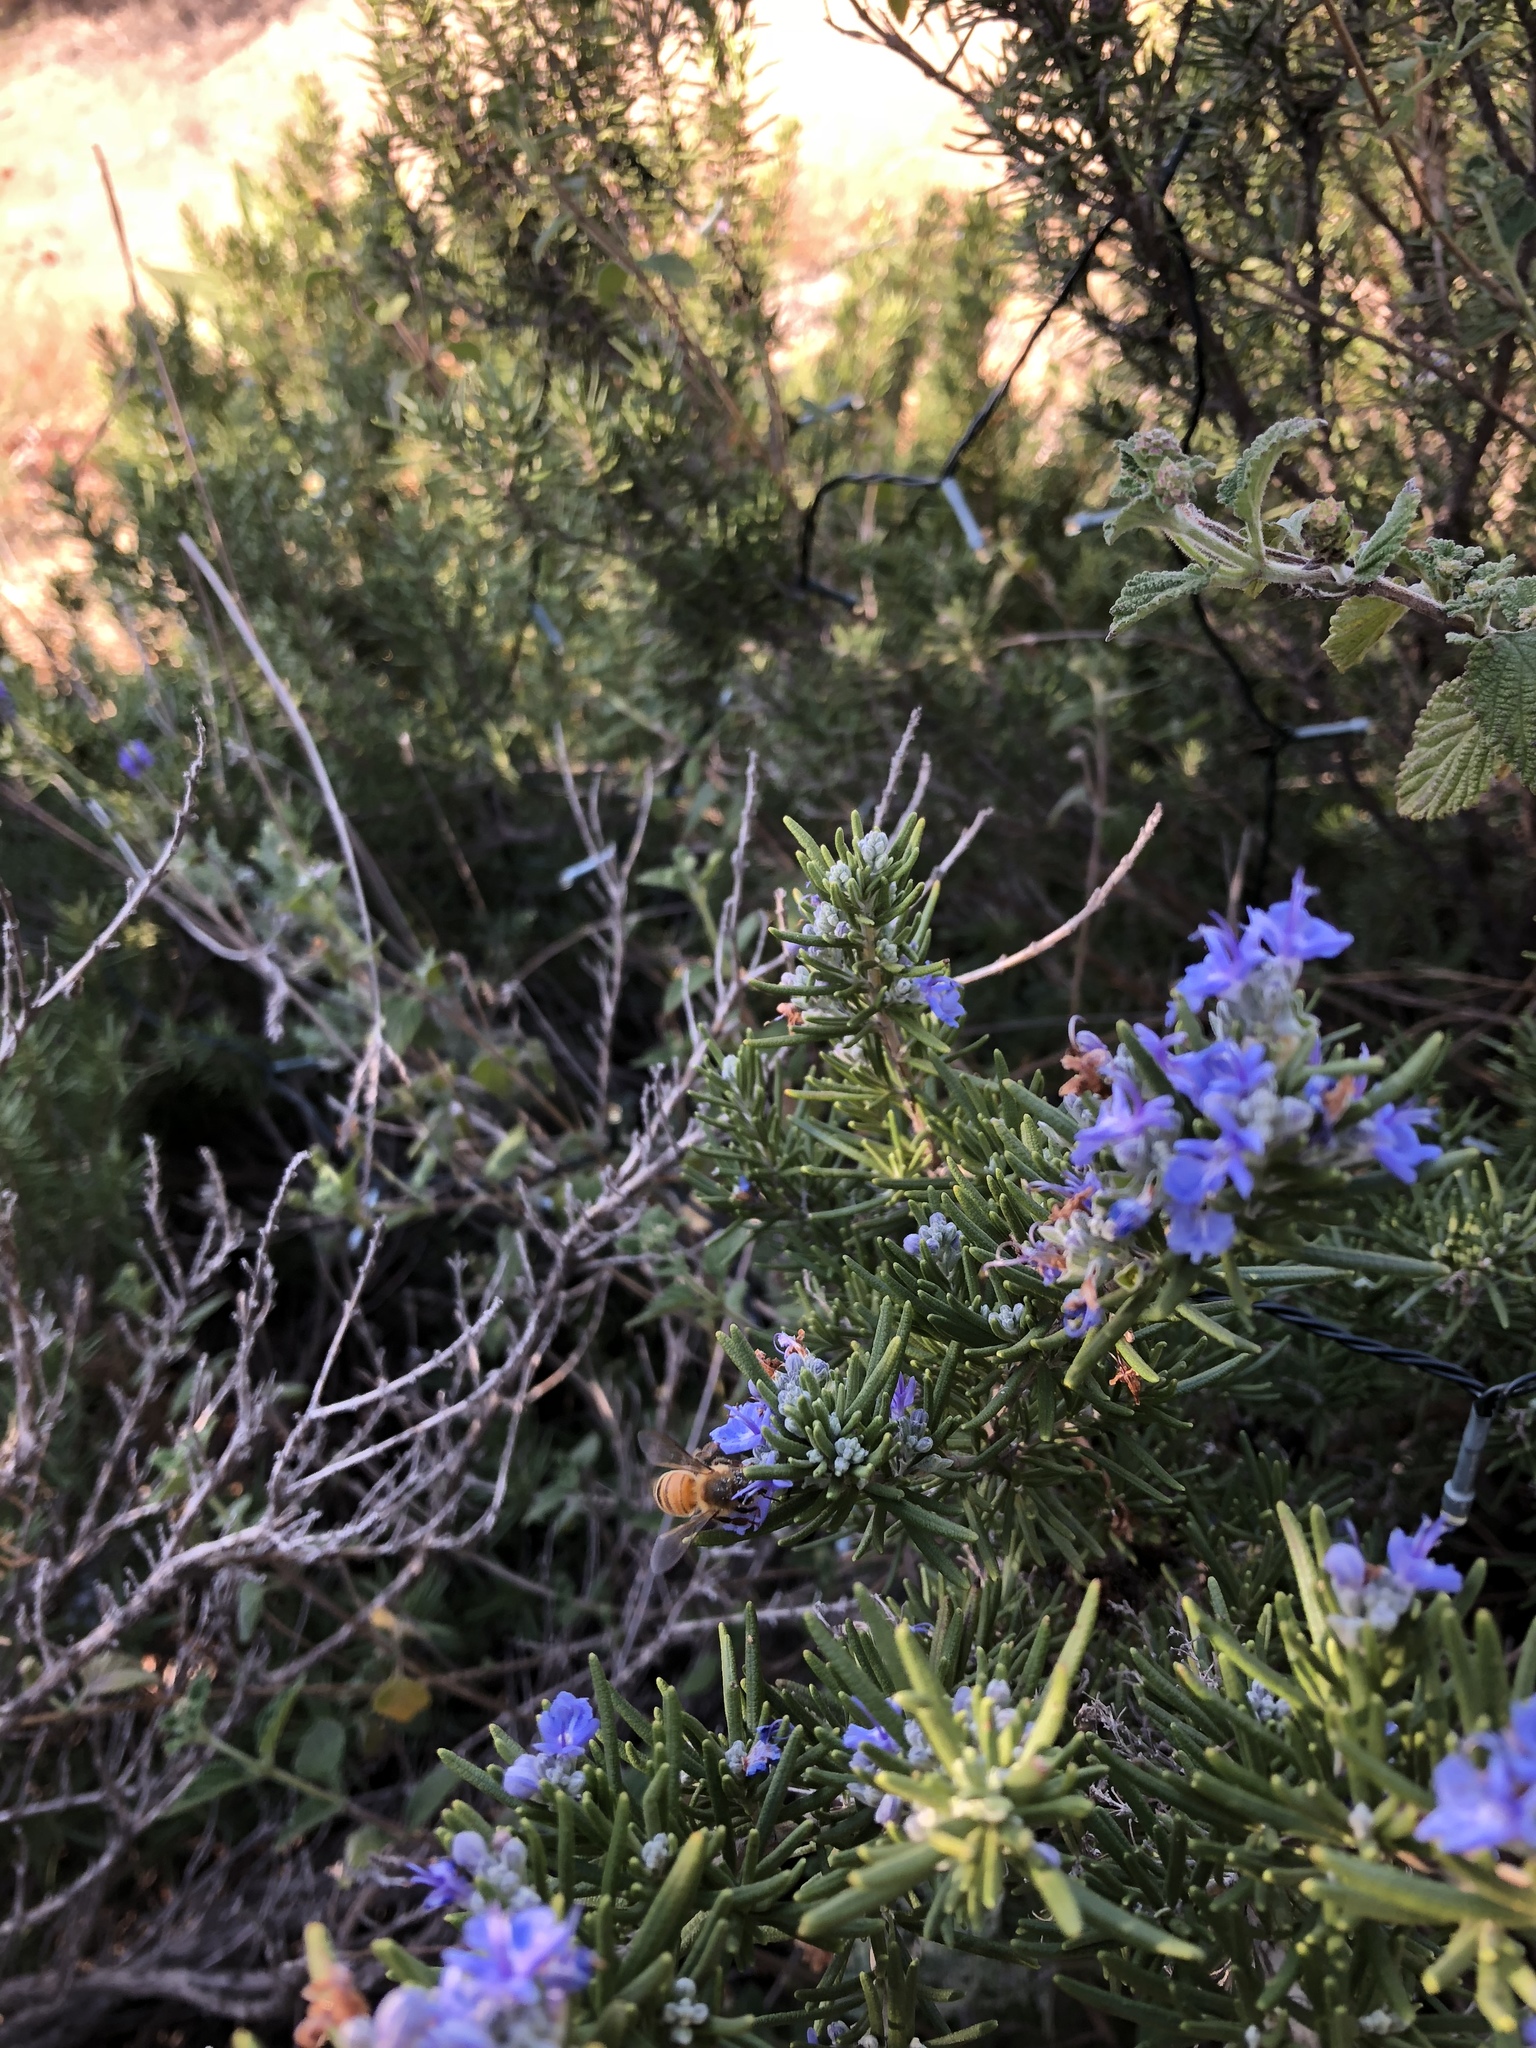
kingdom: Animalia
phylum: Arthropoda
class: Insecta
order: Hymenoptera
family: Apidae
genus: Apis
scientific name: Apis mellifera
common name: Honey bee
